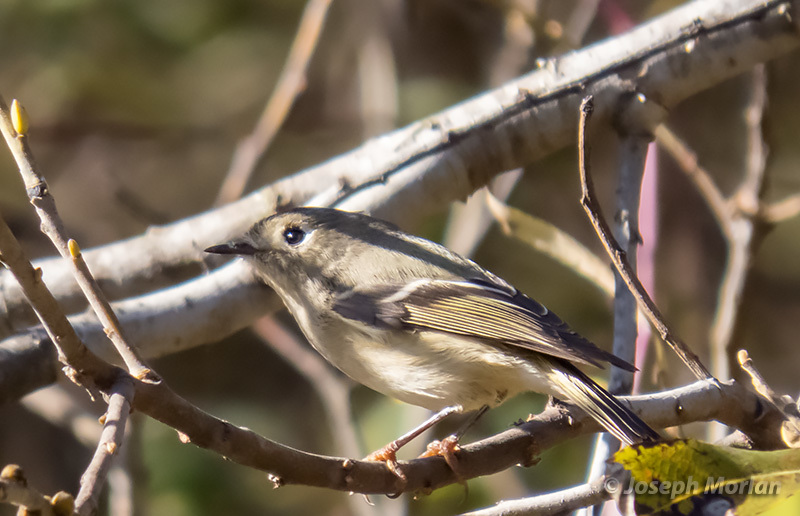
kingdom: Animalia
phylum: Chordata
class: Aves
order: Passeriformes
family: Regulidae
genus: Regulus
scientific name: Regulus calendula
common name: Ruby-crowned kinglet
